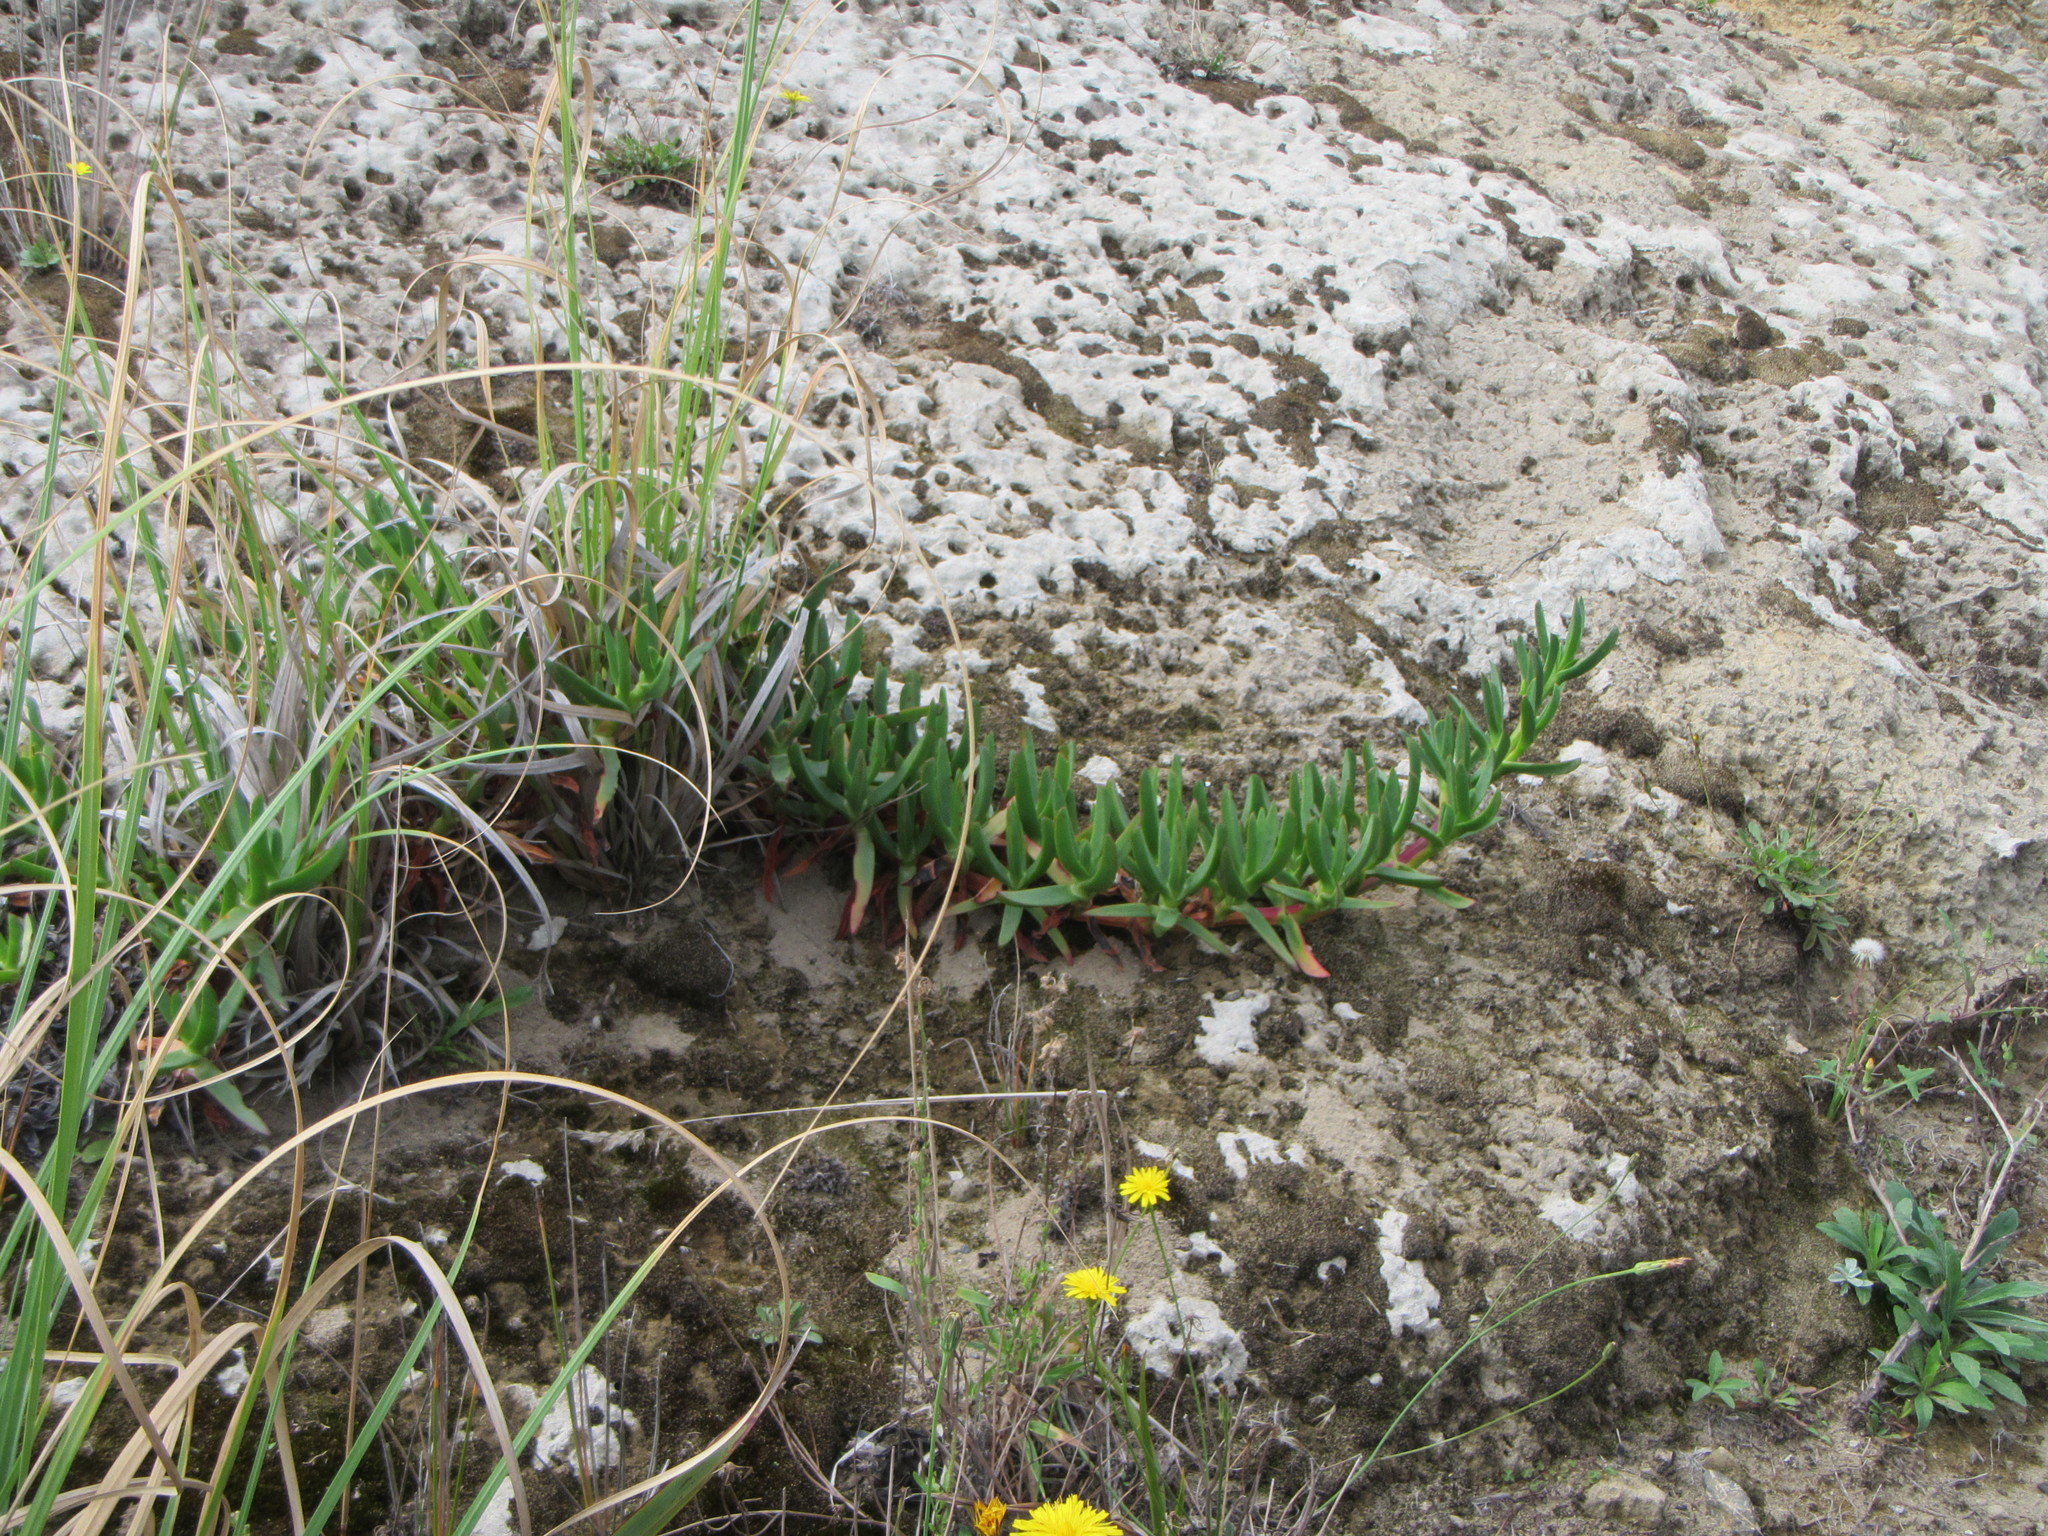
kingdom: Plantae
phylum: Tracheophyta
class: Magnoliopsida
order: Caryophyllales
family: Aizoaceae
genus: Carpobrotus
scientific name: Carpobrotus edulis
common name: Hottentot-fig
